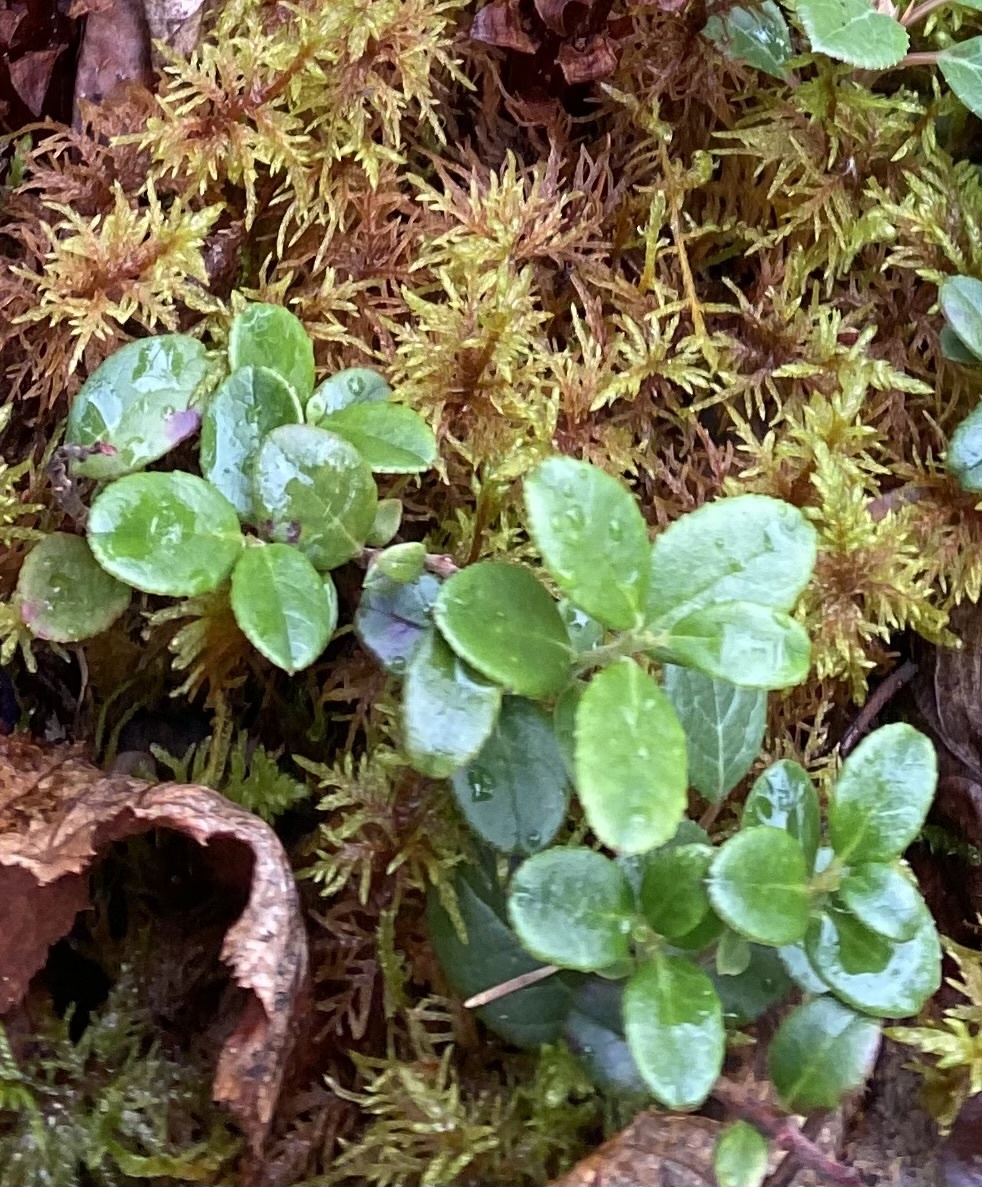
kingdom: Plantae
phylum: Tracheophyta
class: Magnoliopsida
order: Ericales
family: Ericaceae
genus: Vaccinium
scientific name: Vaccinium vitis-idaea
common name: Cowberry
